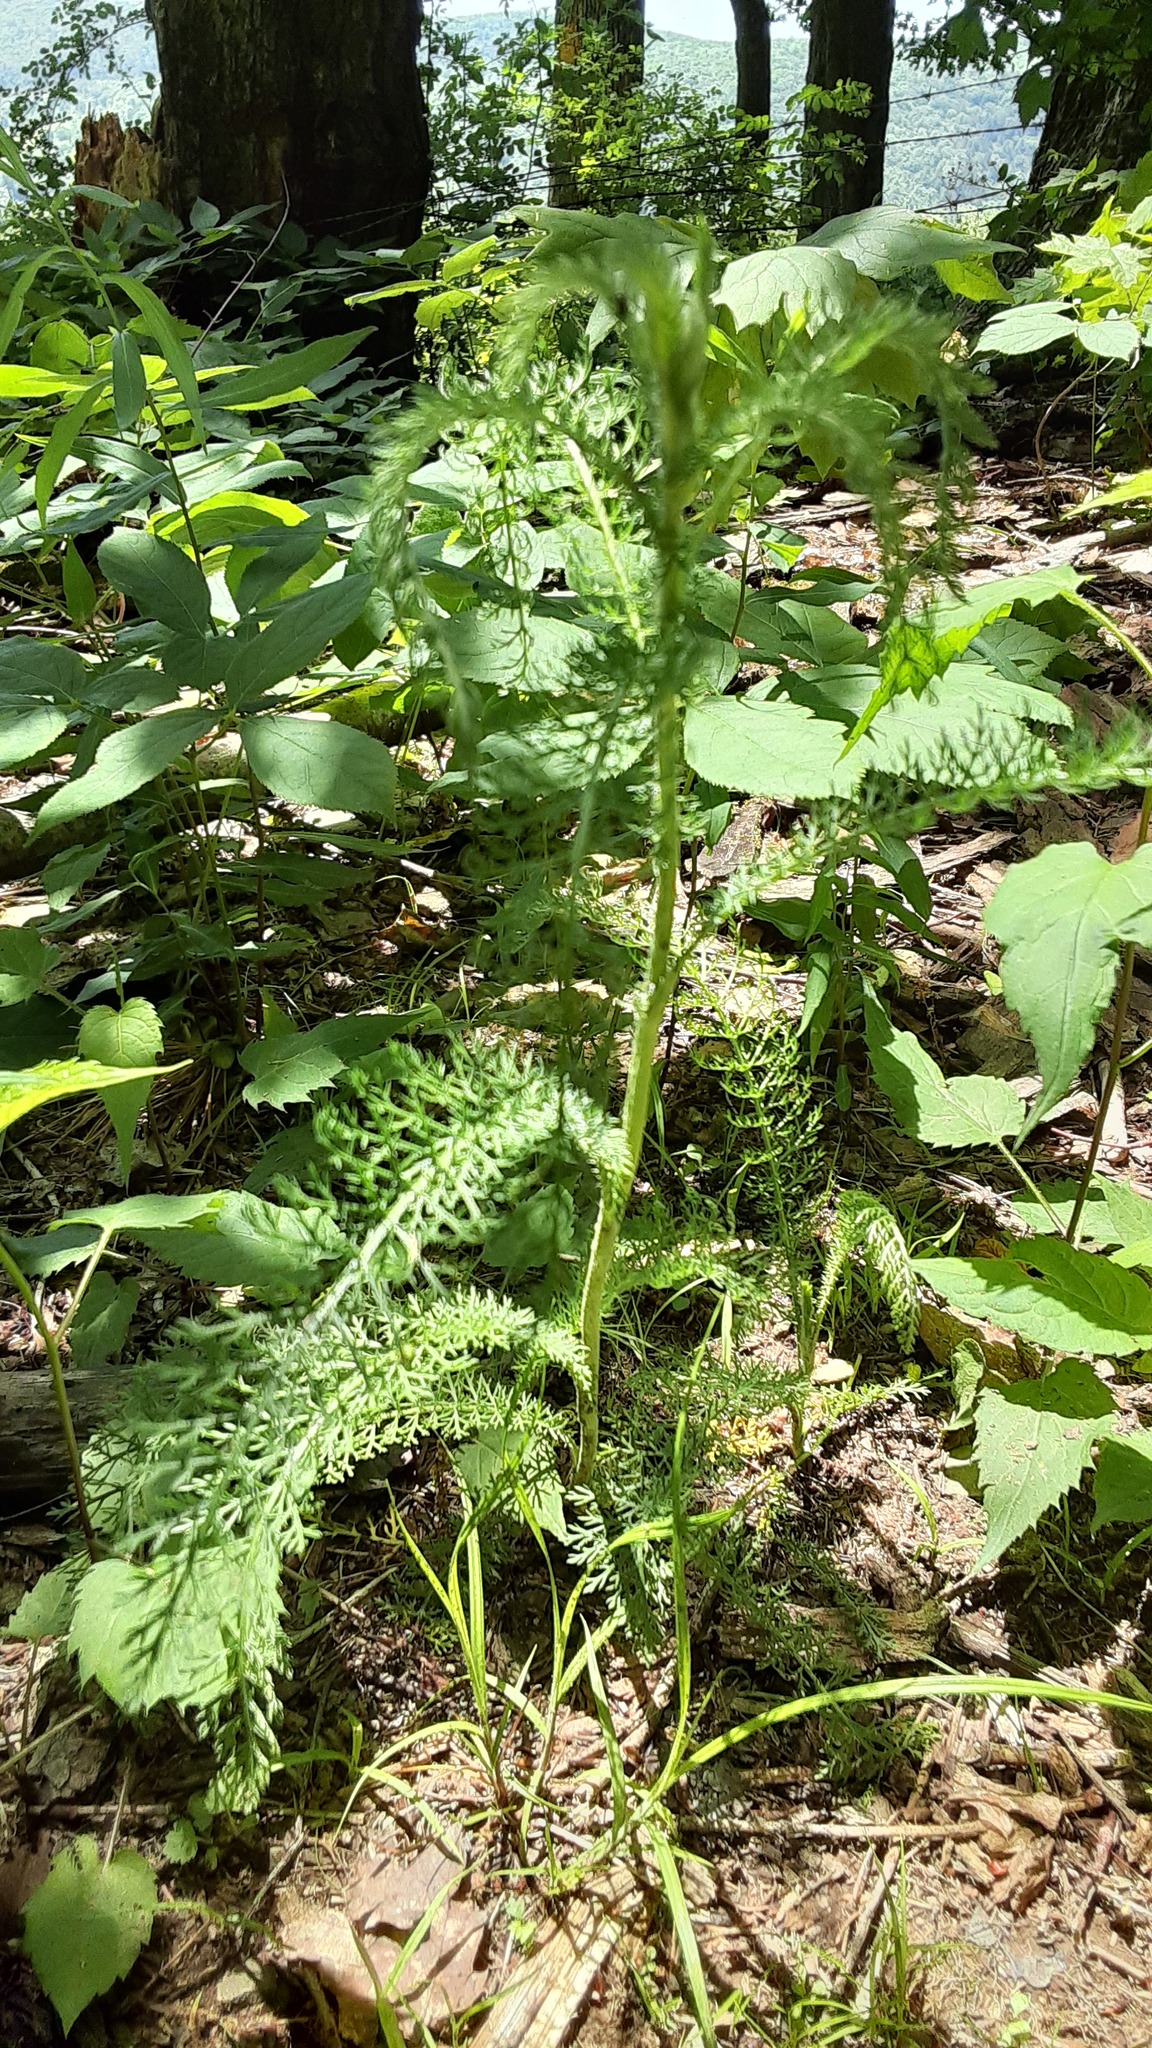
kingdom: Plantae
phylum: Tracheophyta
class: Magnoliopsida
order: Asterales
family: Asteraceae
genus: Achillea
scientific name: Achillea millefolium
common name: Yarrow
